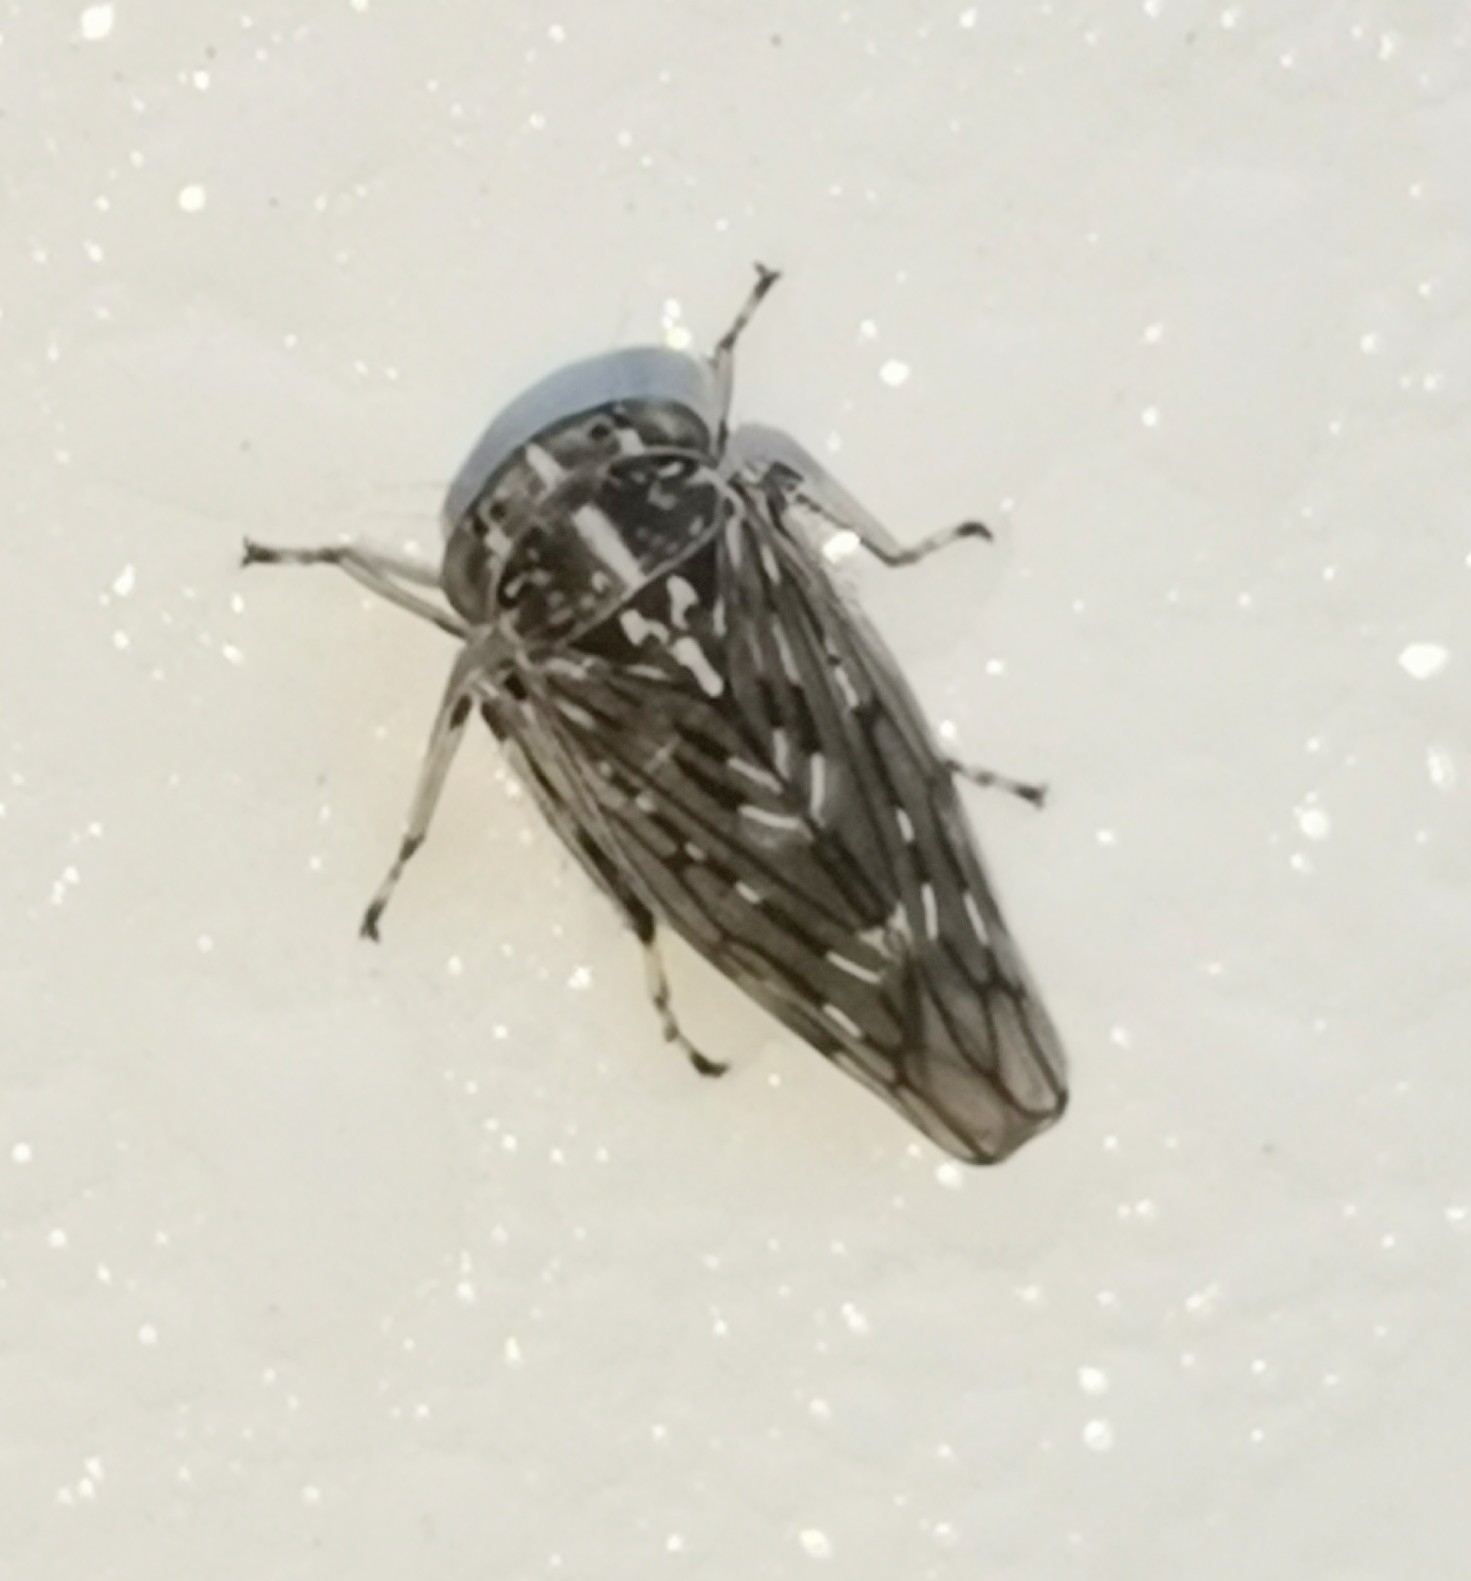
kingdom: Animalia
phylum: Arthropoda
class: Insecta
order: Hemiptera
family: Cicadellidae
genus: Metidiocerus
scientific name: Metidiocerus poecilus
